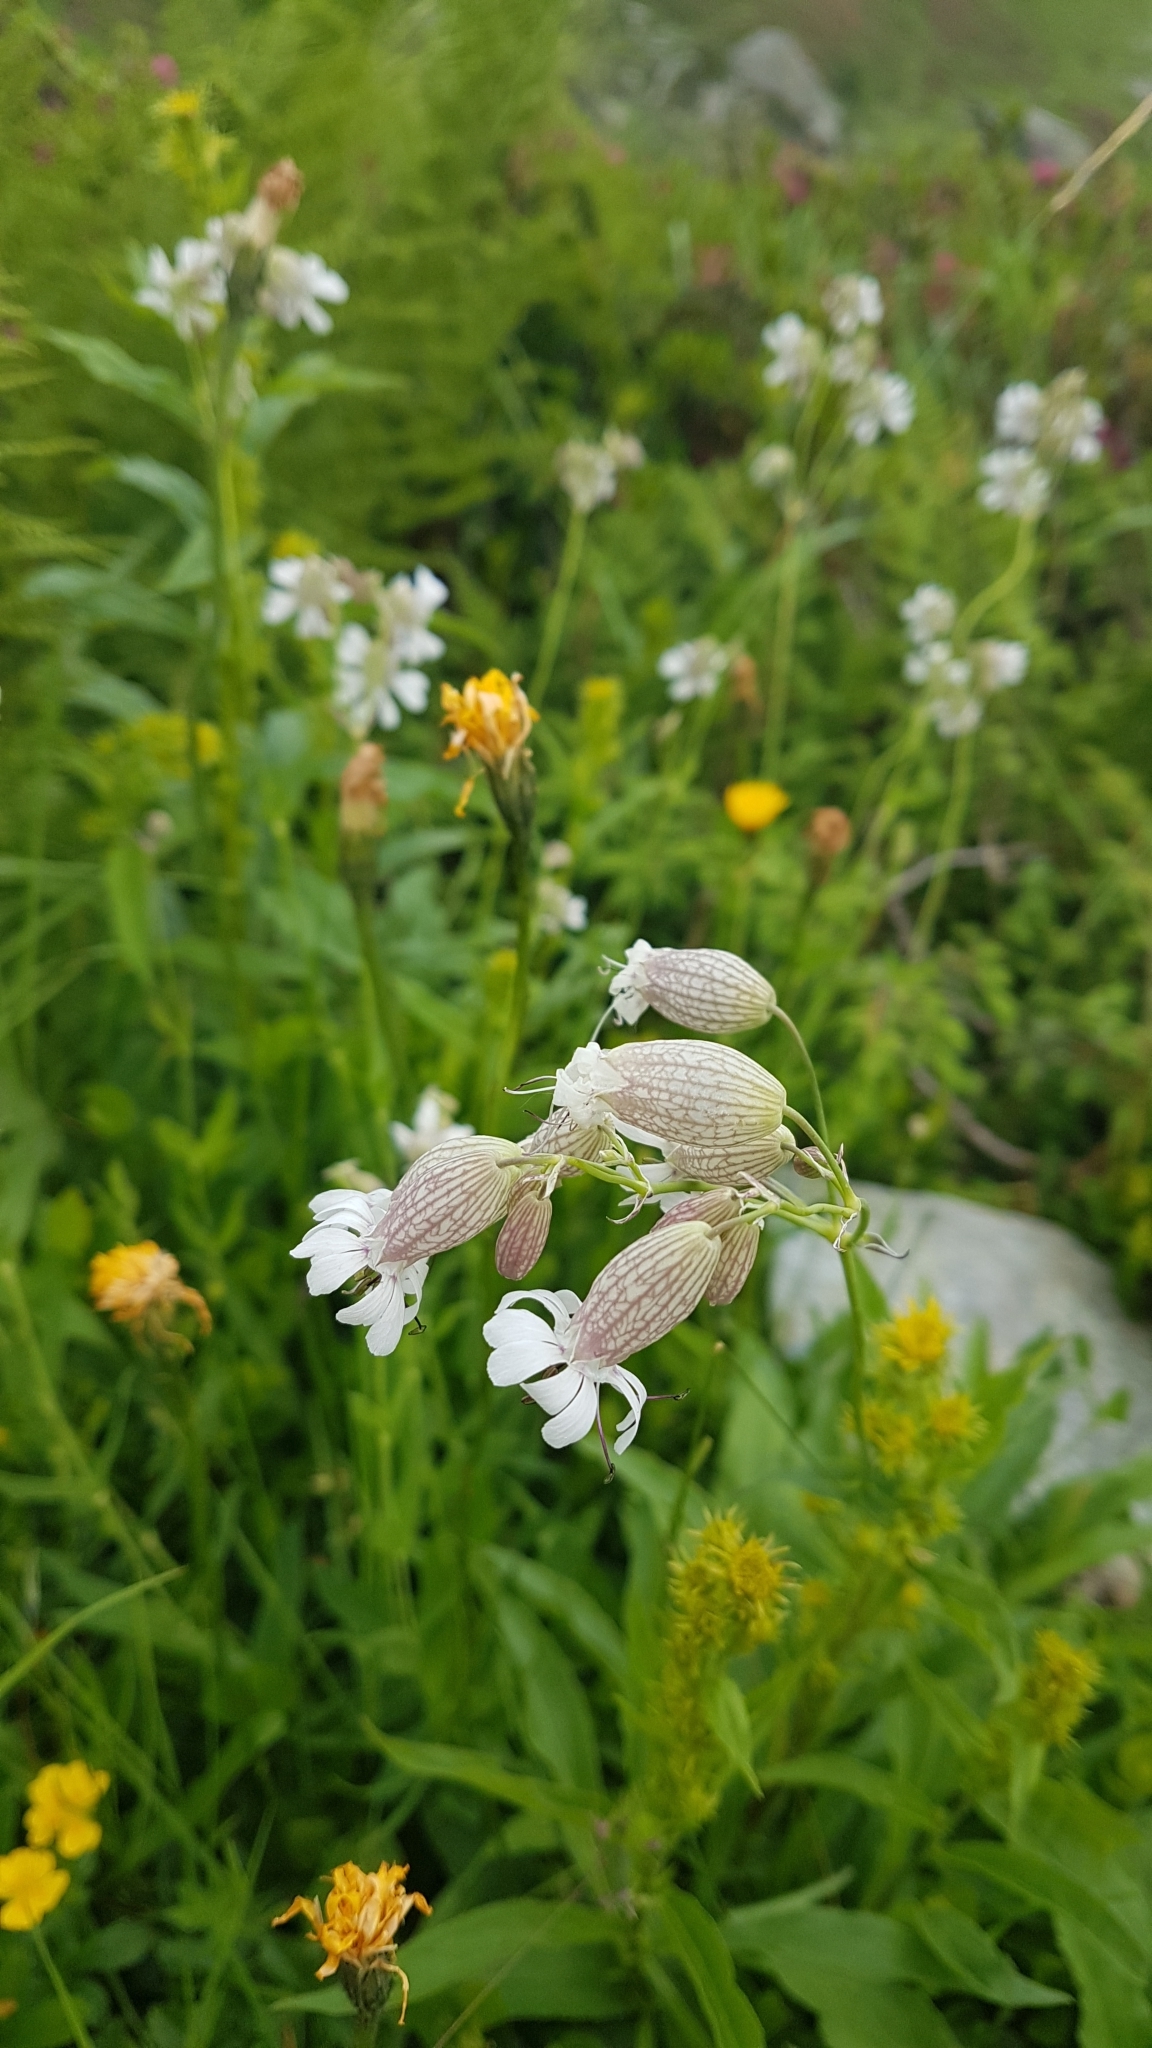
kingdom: Plantae
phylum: Tracheophyta
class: Magnoliopsida
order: Caryophyllales
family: Caryophyllaceae
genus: Silene
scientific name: Silene vulgaris
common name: Bladder campion
